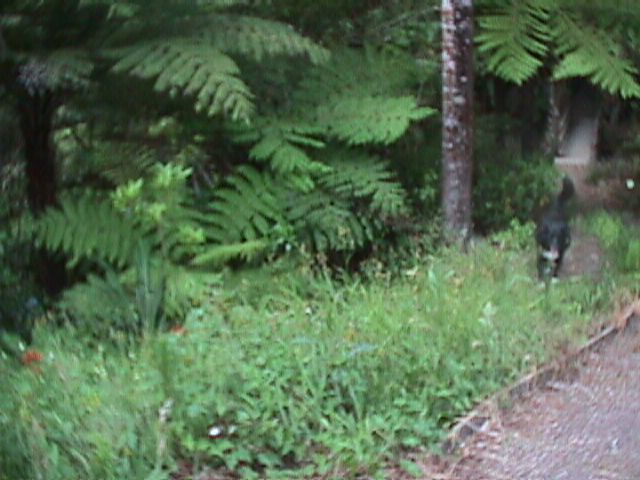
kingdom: Plantae
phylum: Tracheophyta
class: Pinopsida
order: Pinales
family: Phyllocladaceae
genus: Phyllocladus
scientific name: Phyllocladus trichomanoides
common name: Celery pine
